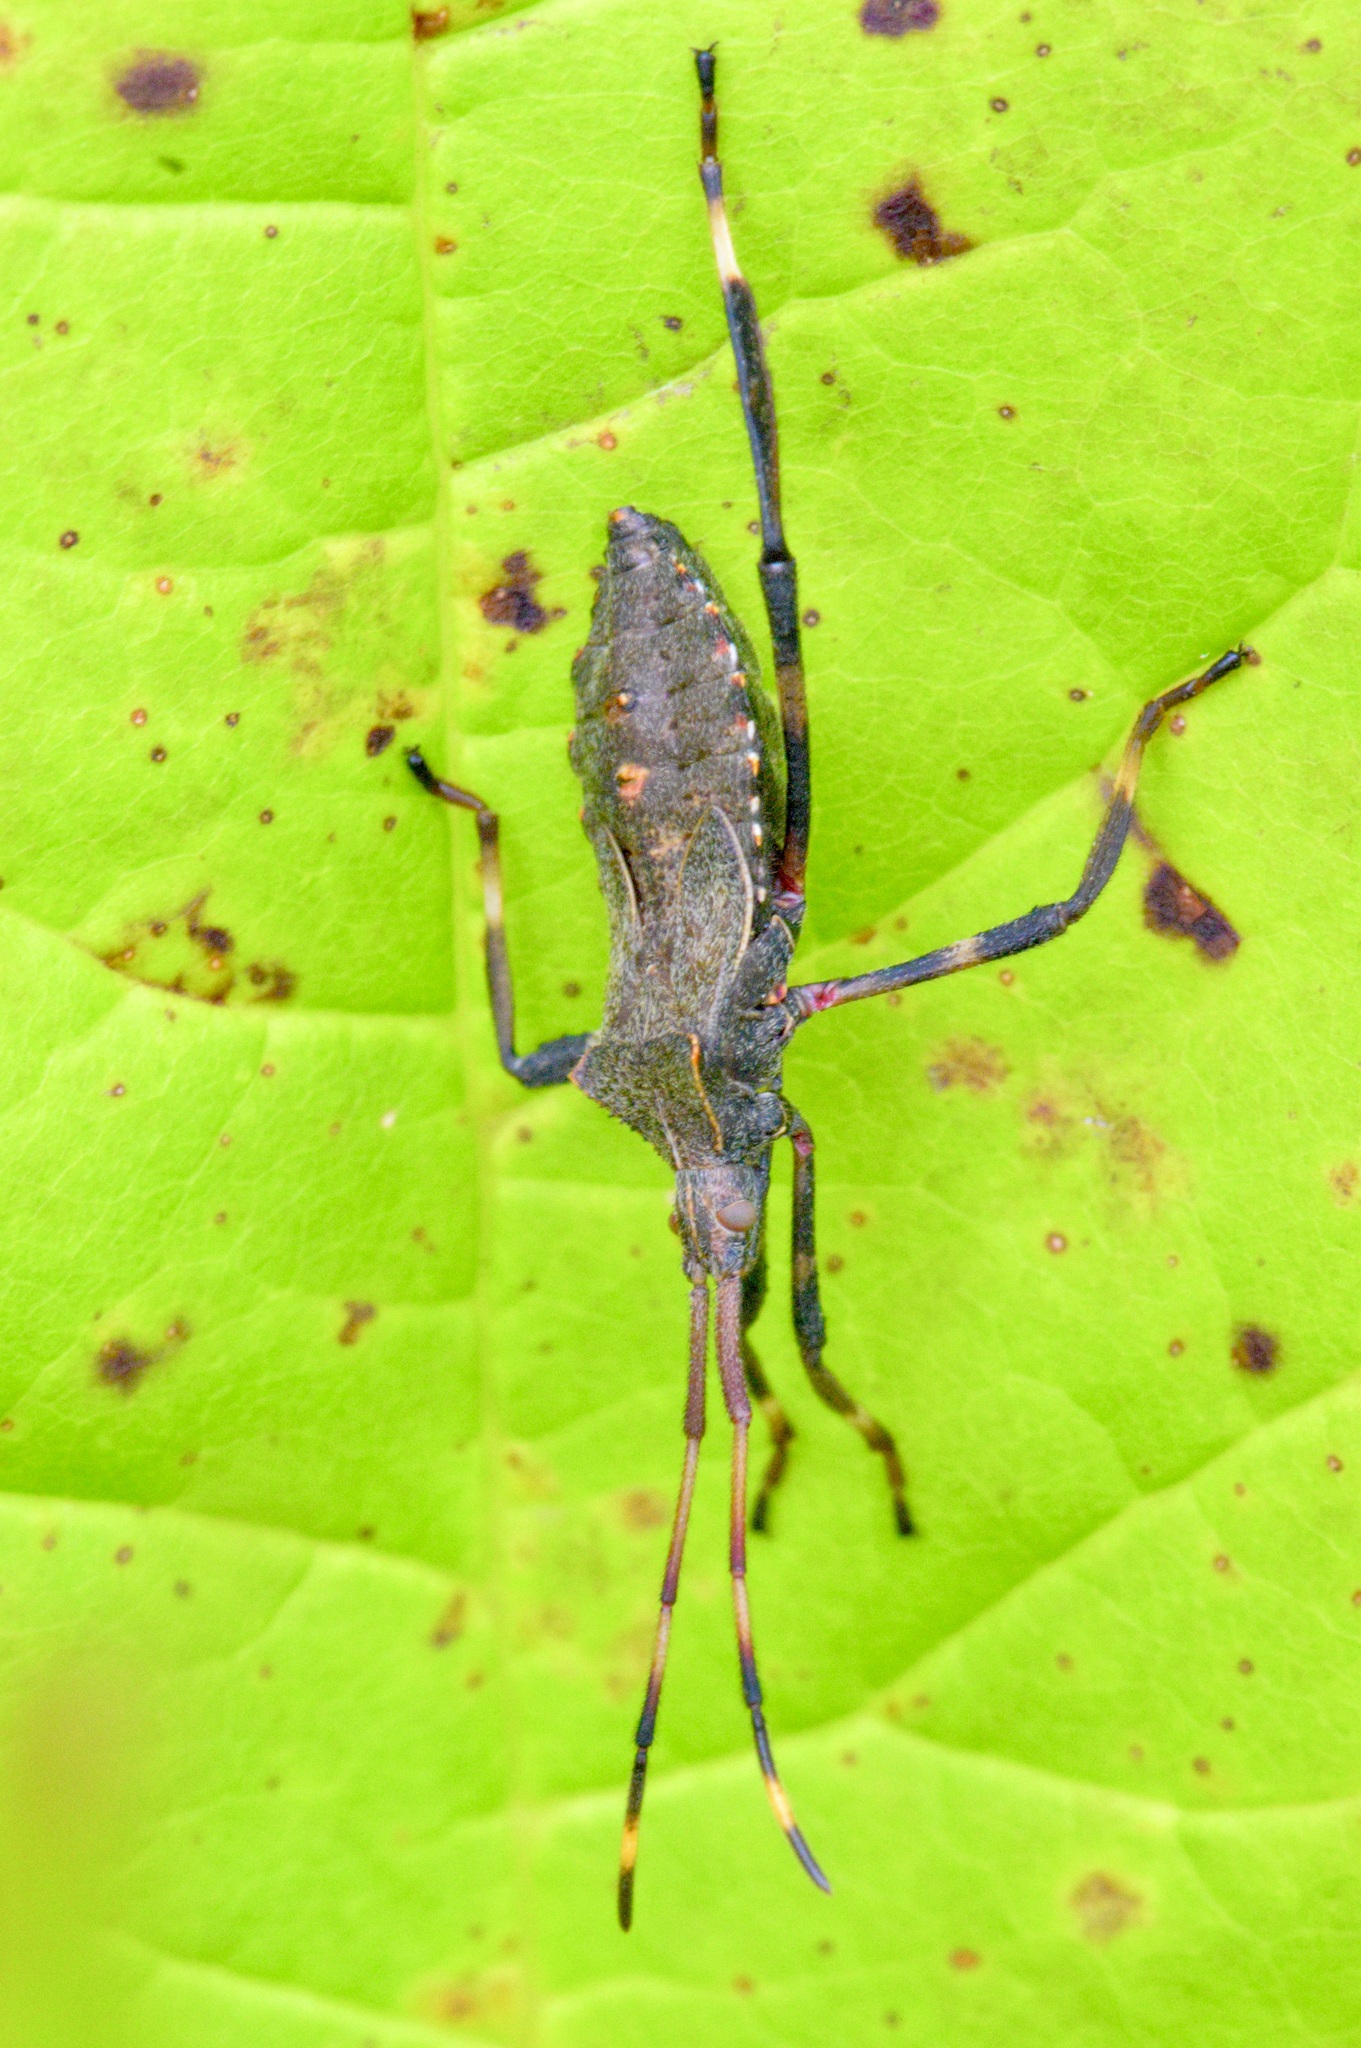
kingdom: Animalia
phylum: Arthropoda
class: Insecta
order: Hemiptera
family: Coreidae
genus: Acanthocephala
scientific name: Acanthocephala terminalis
